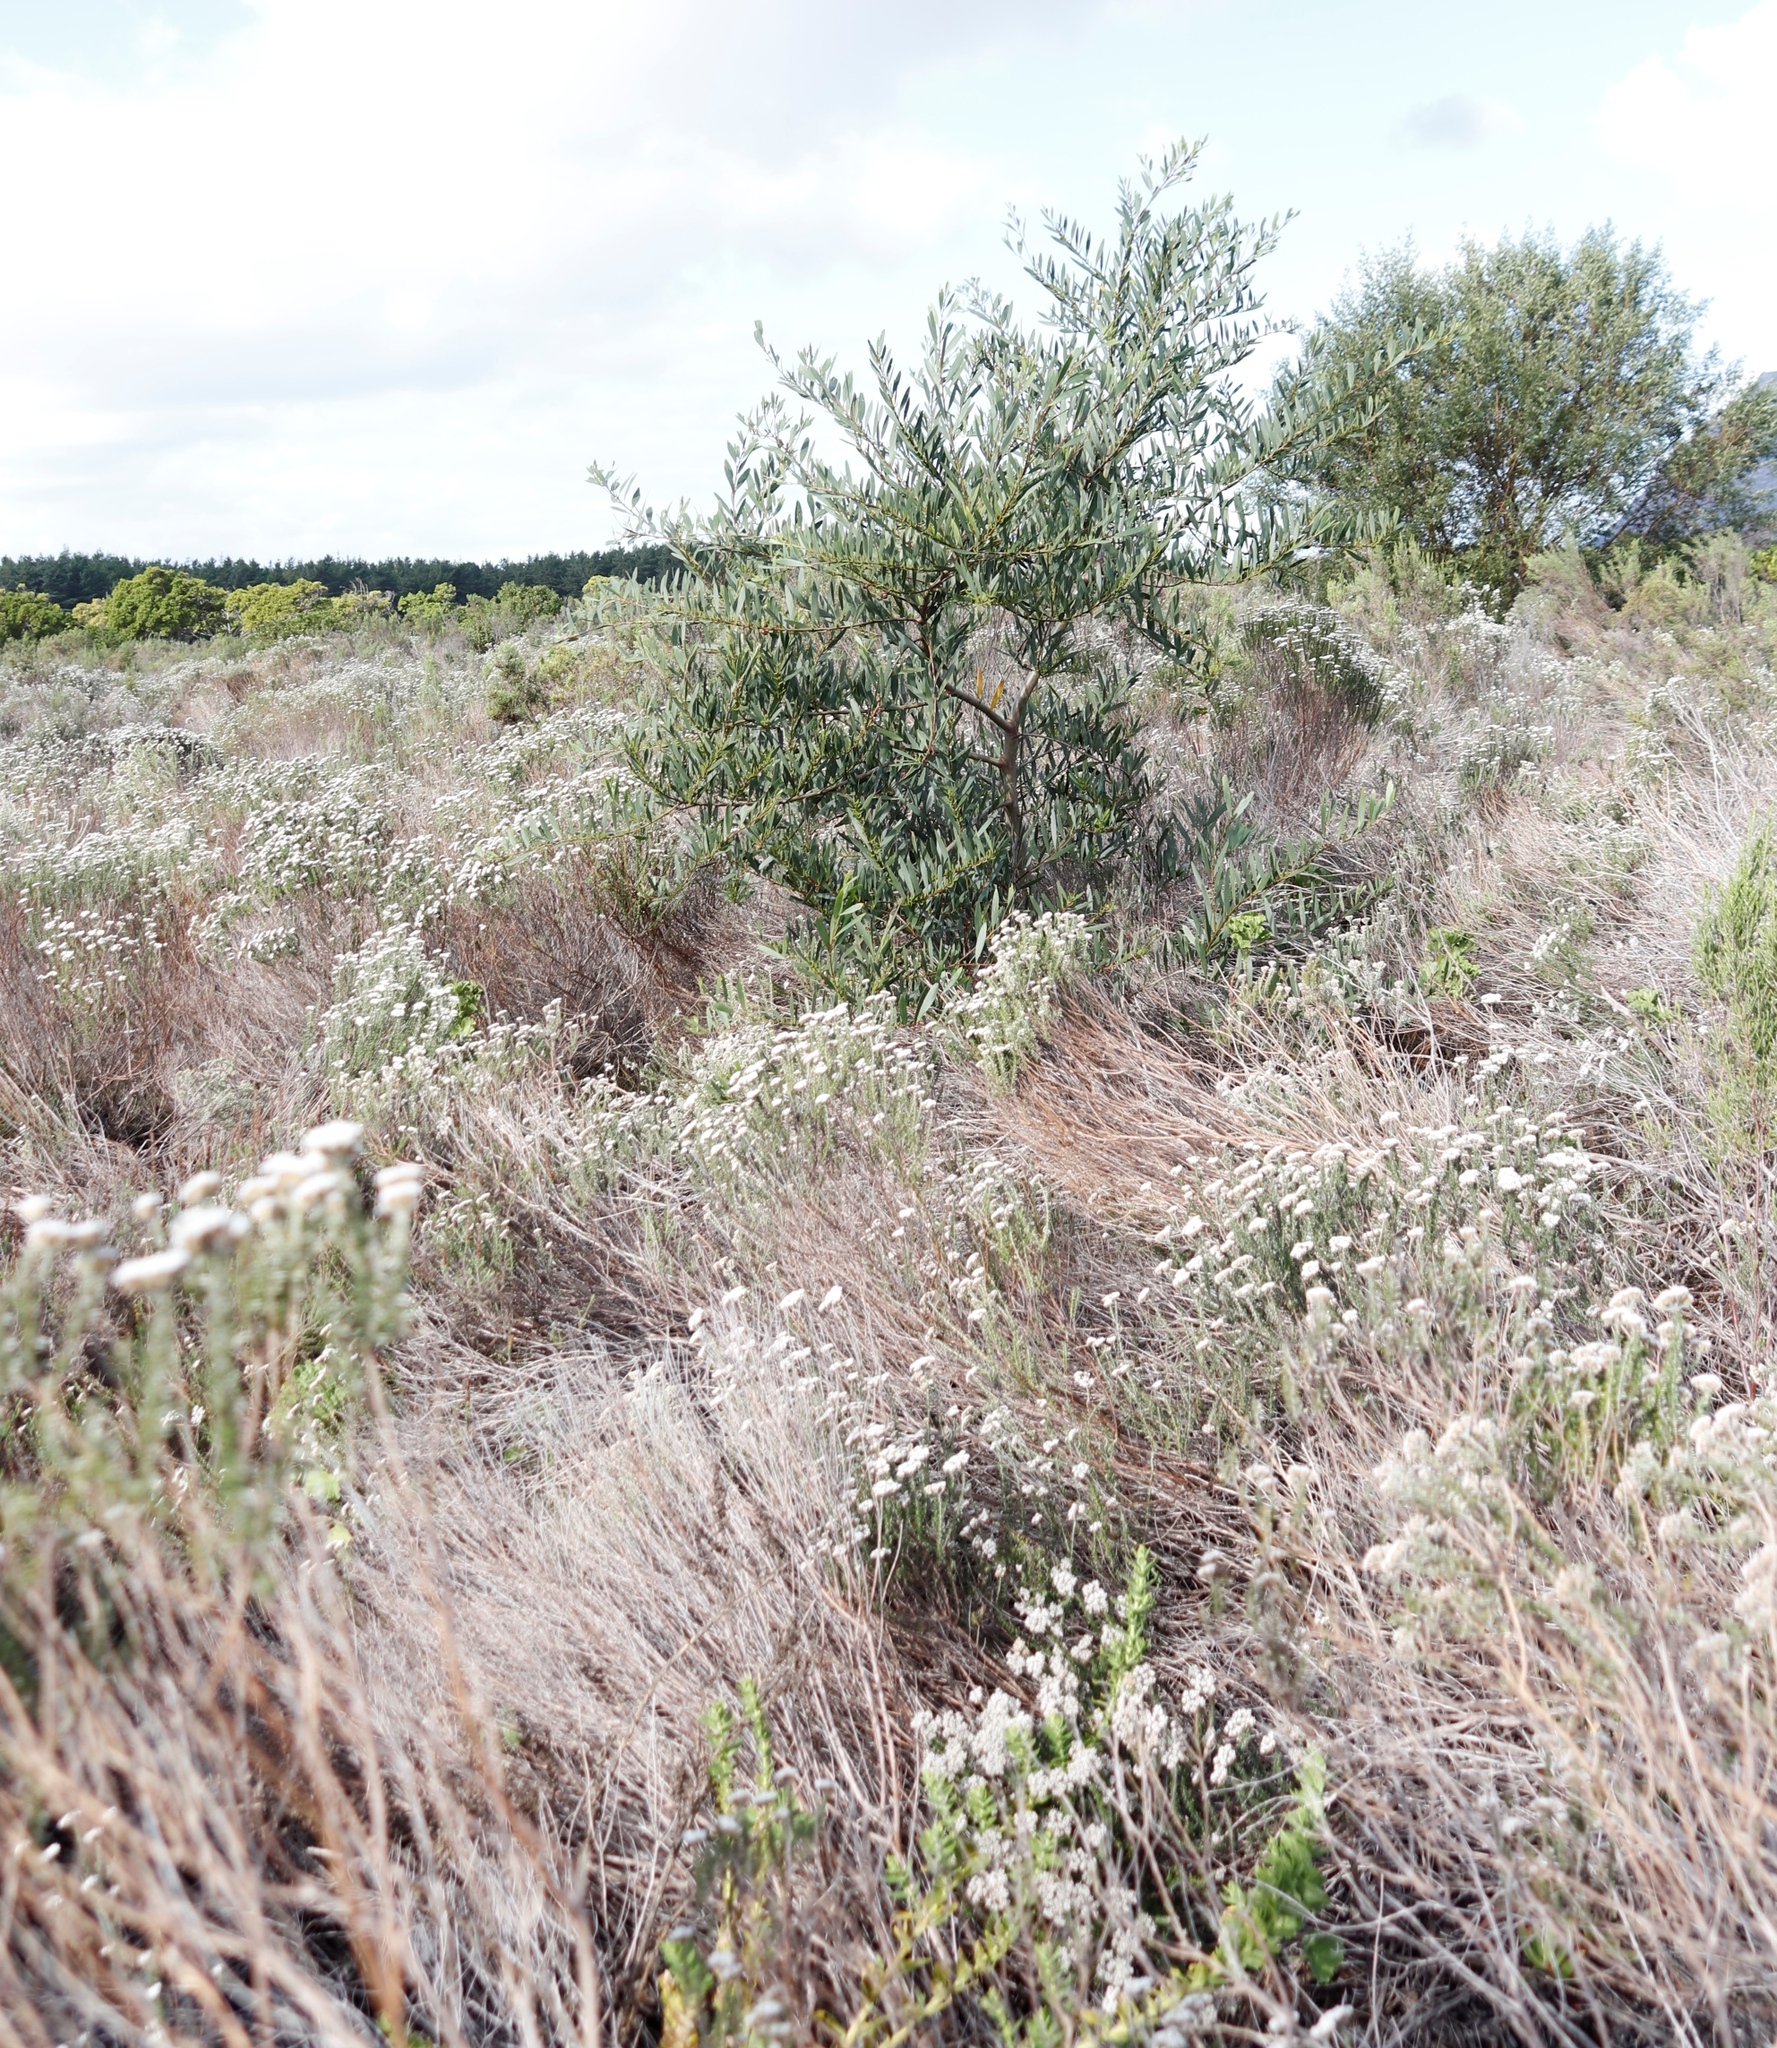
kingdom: Plantae
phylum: Tracheophyta
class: Magnoliopsida
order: Fabales
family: Fabaceae
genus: Acacia
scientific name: Acacia longifolia
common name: Sydney golden wattle
